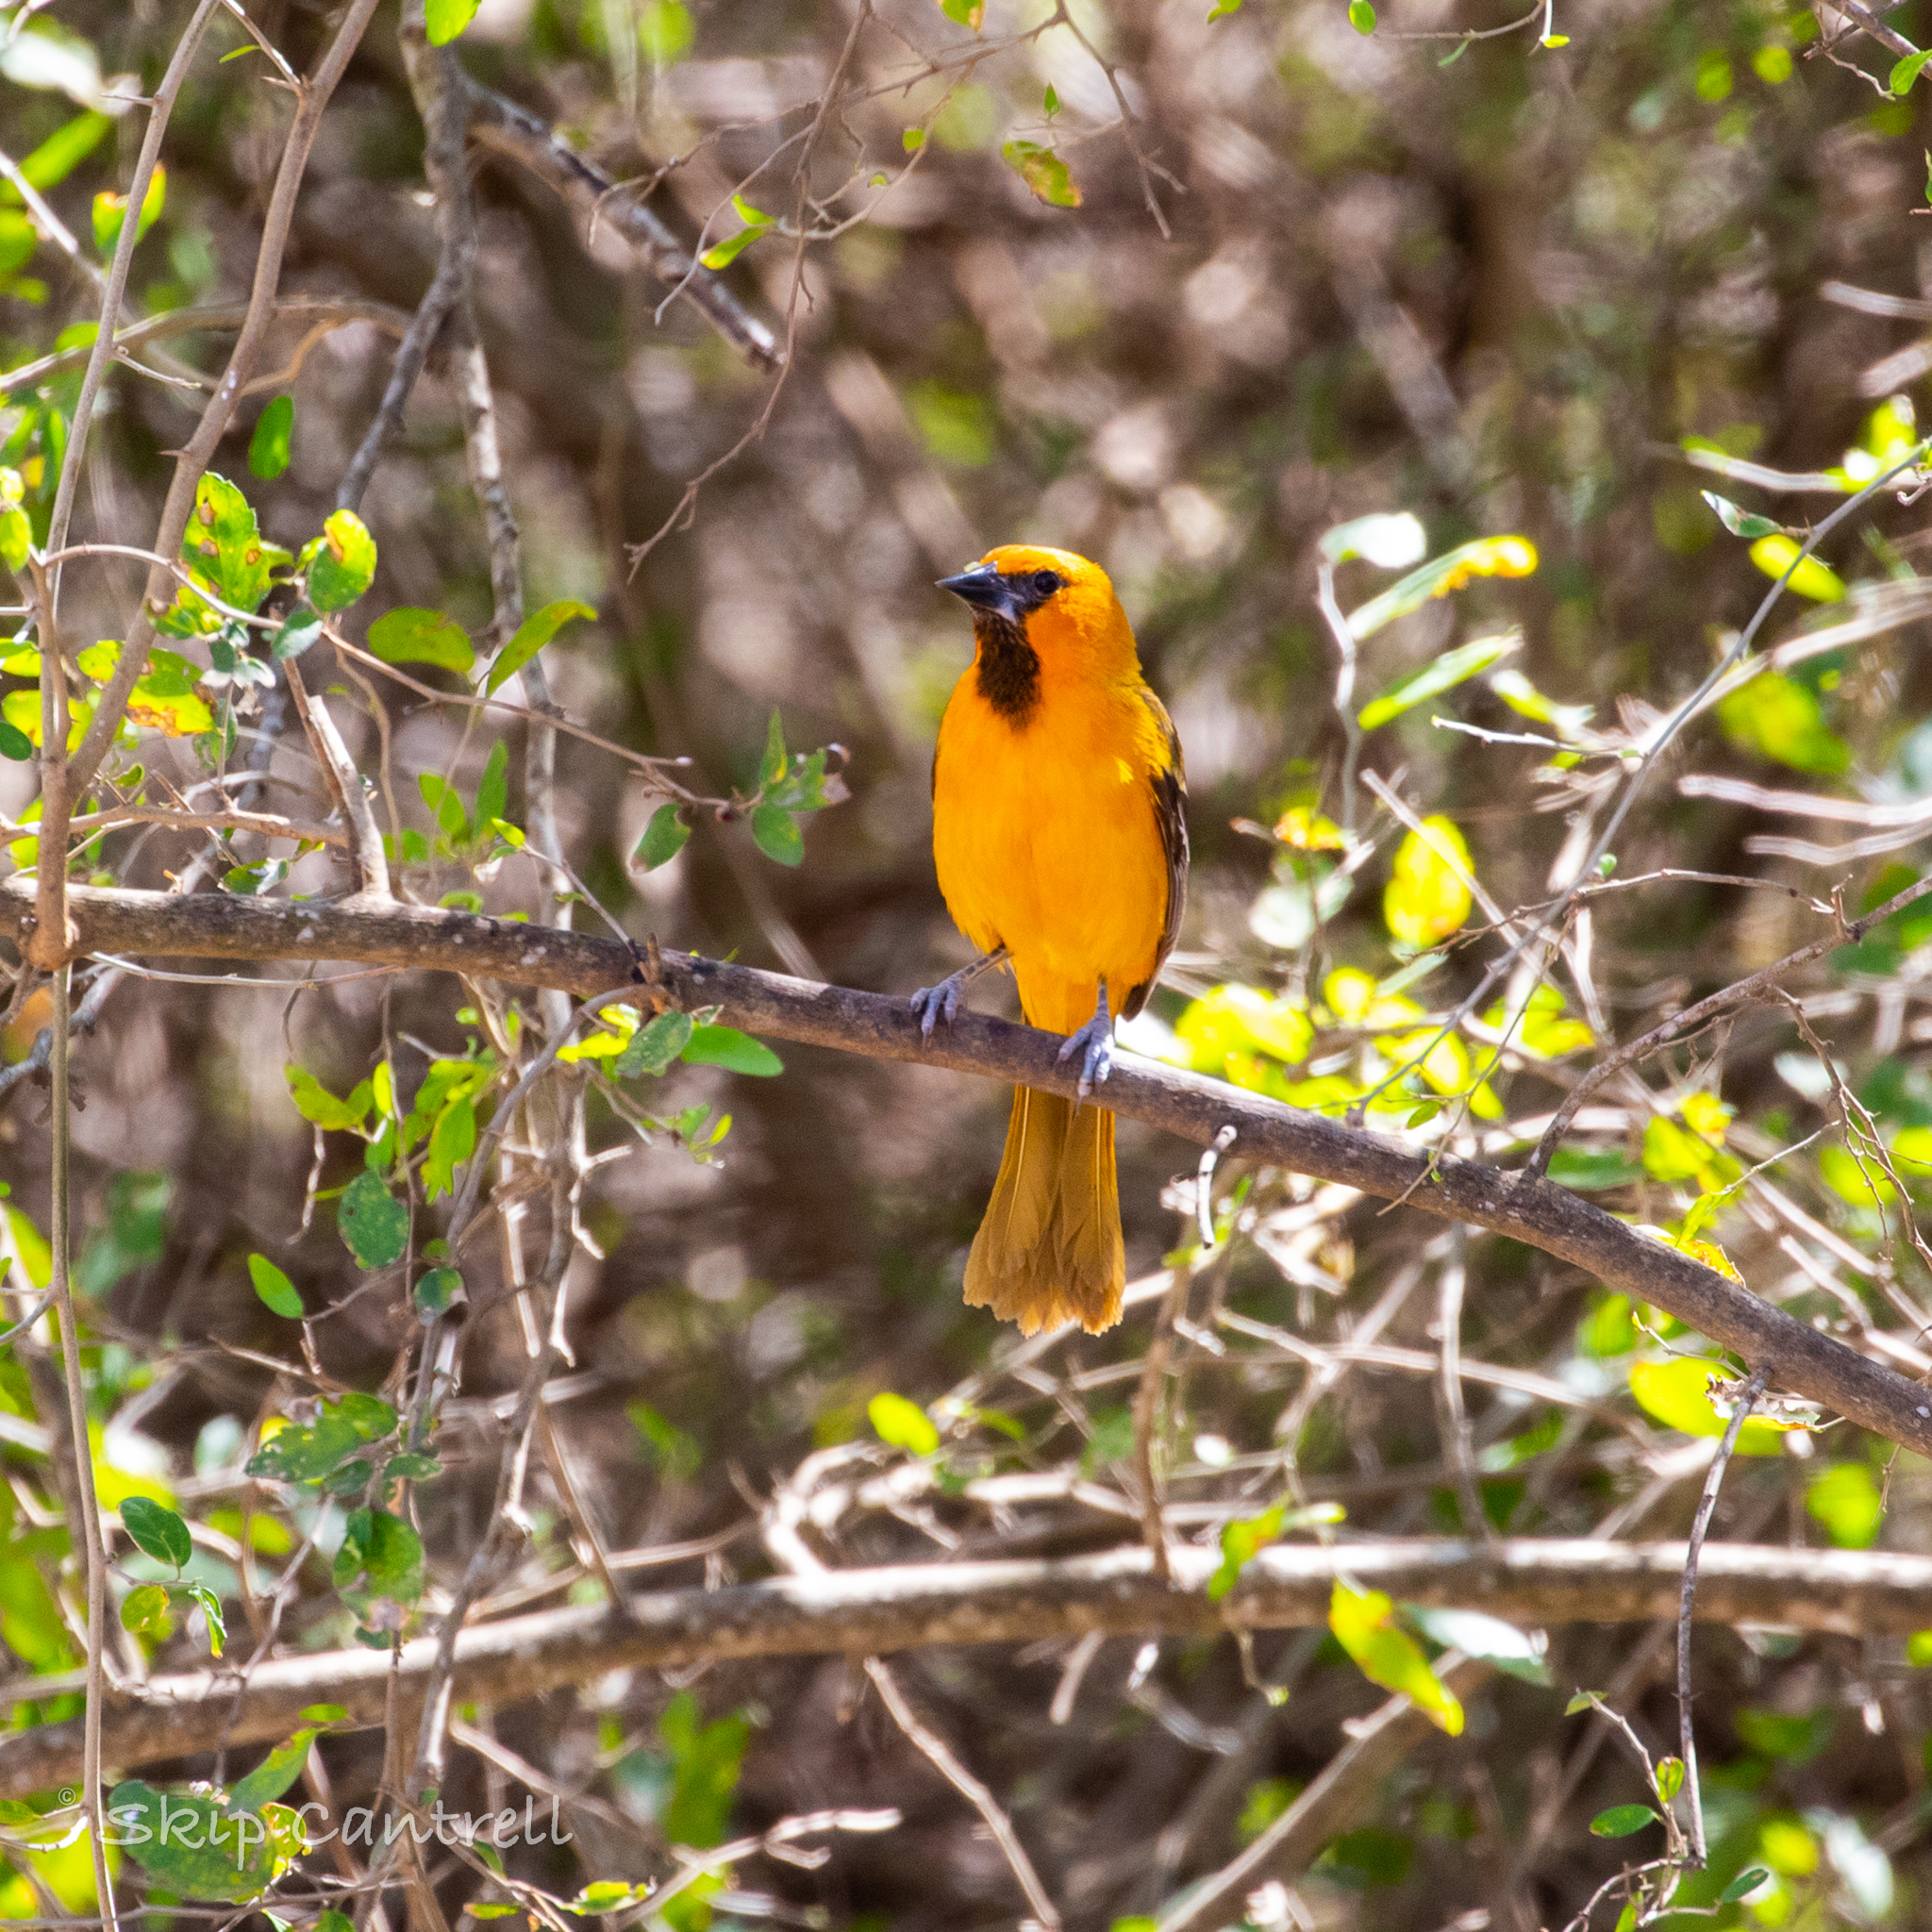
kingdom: Animalia
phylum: Chordata
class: Aves
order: Passeriformes
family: Icteridae
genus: Icterus
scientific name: Icterus gularis
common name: Altamira oriole
